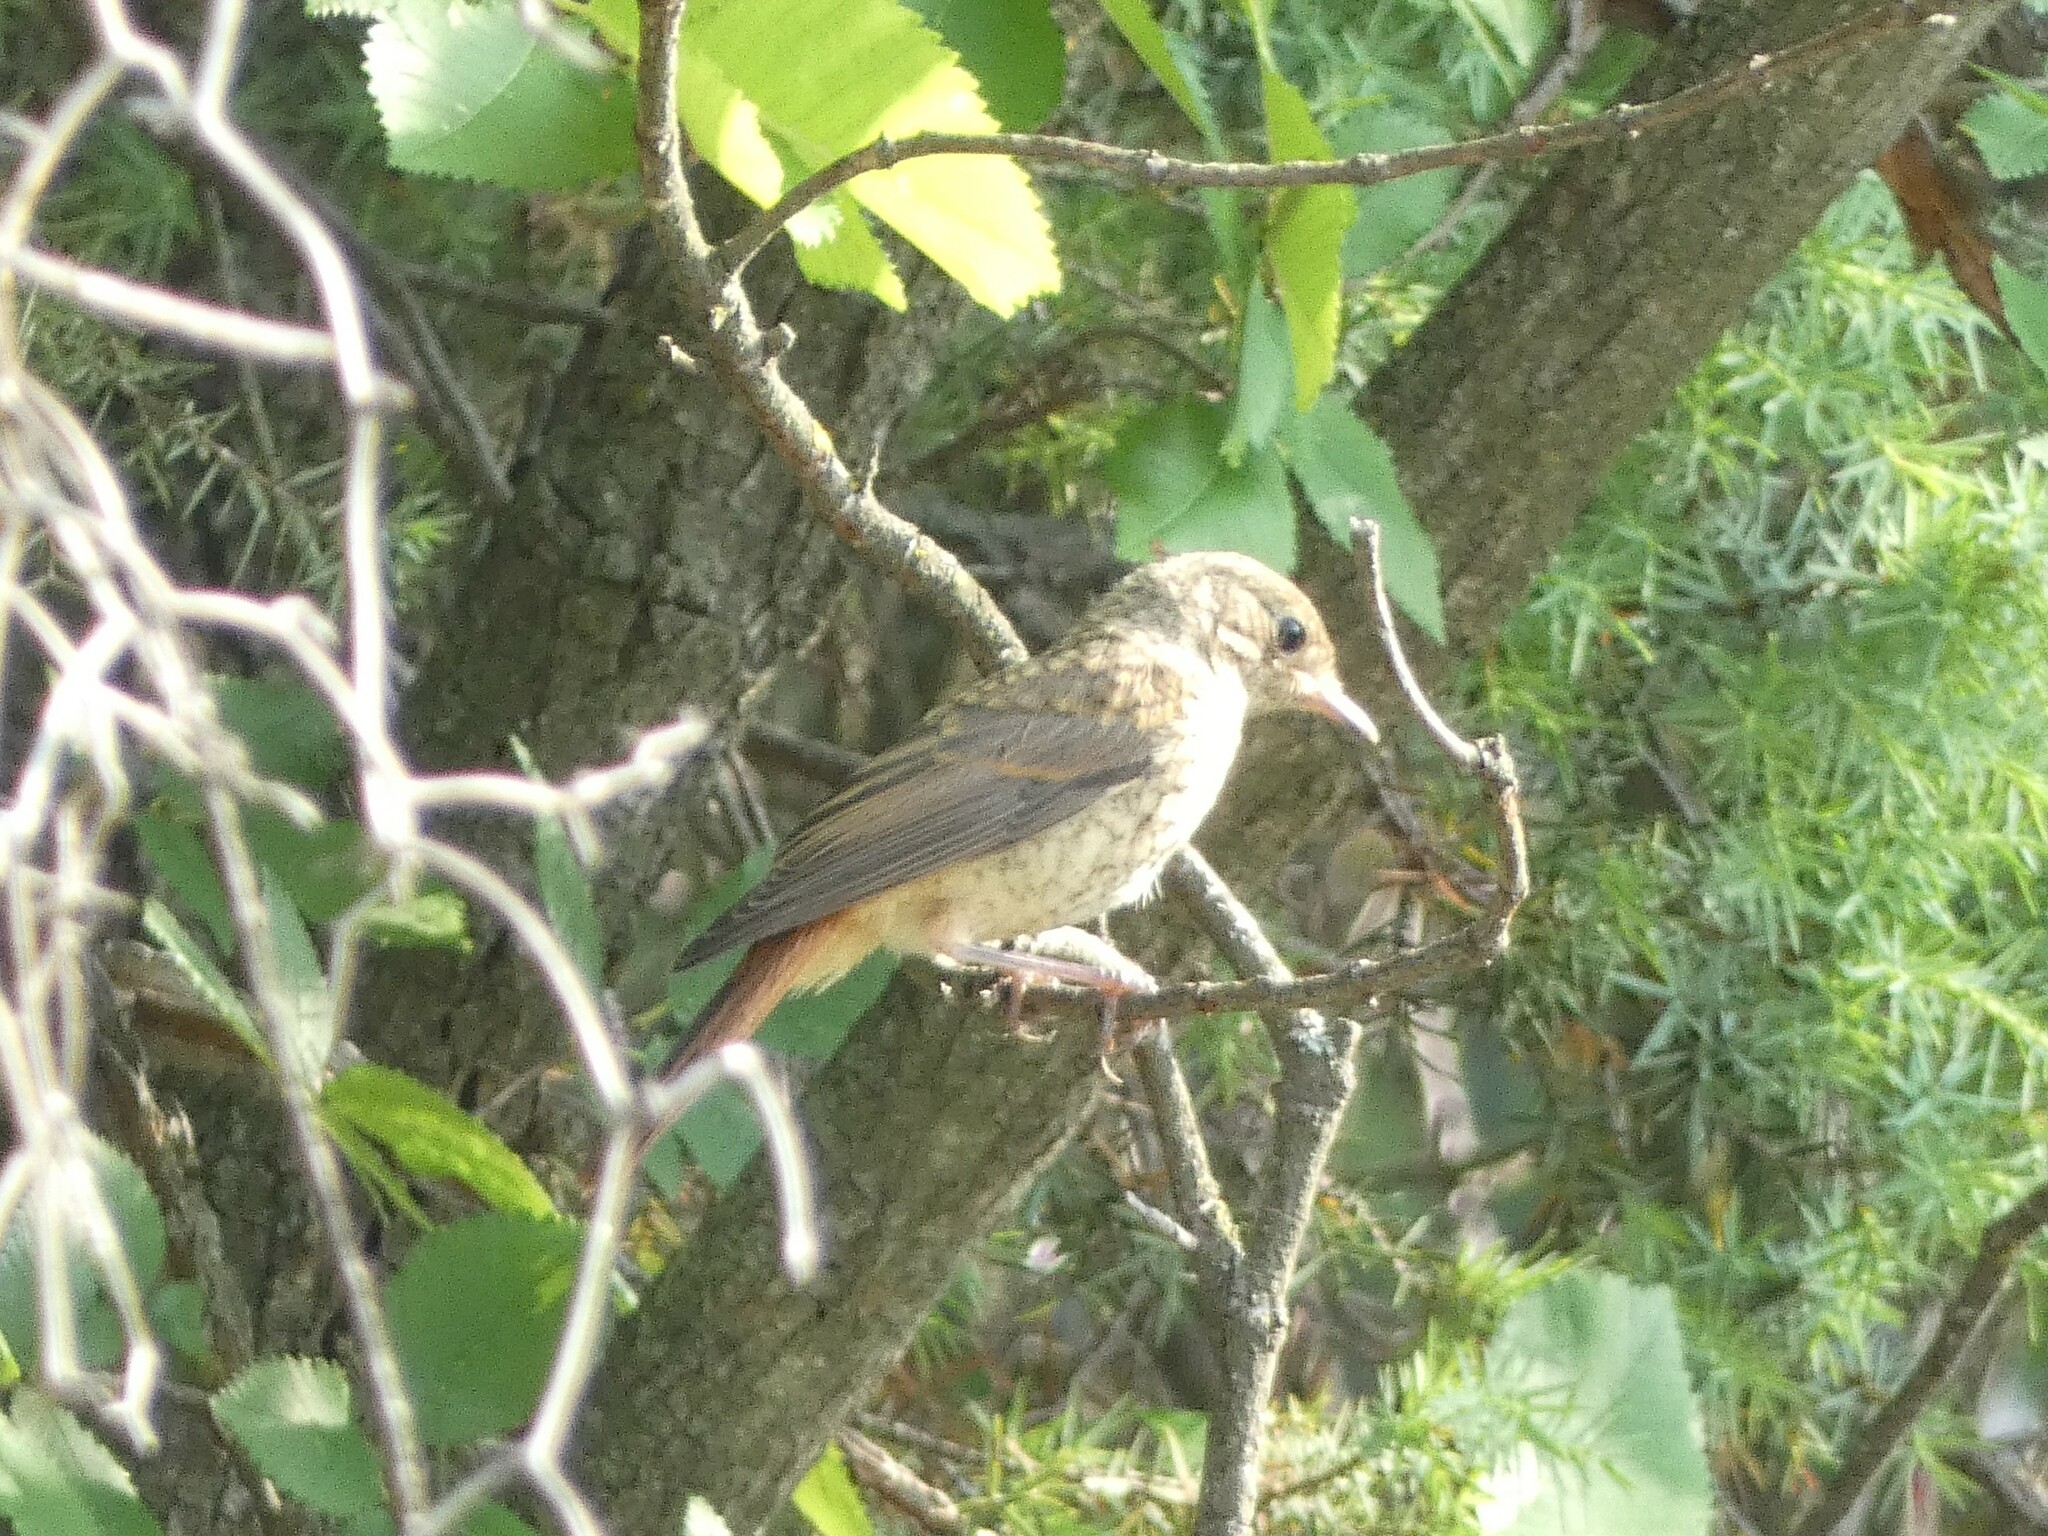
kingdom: Animalia
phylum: Chordata
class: Aves
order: Passeriformes
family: Muscicapidae
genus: Phoenicurus
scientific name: Phoenicurus phoenicurus
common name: Common redstart
